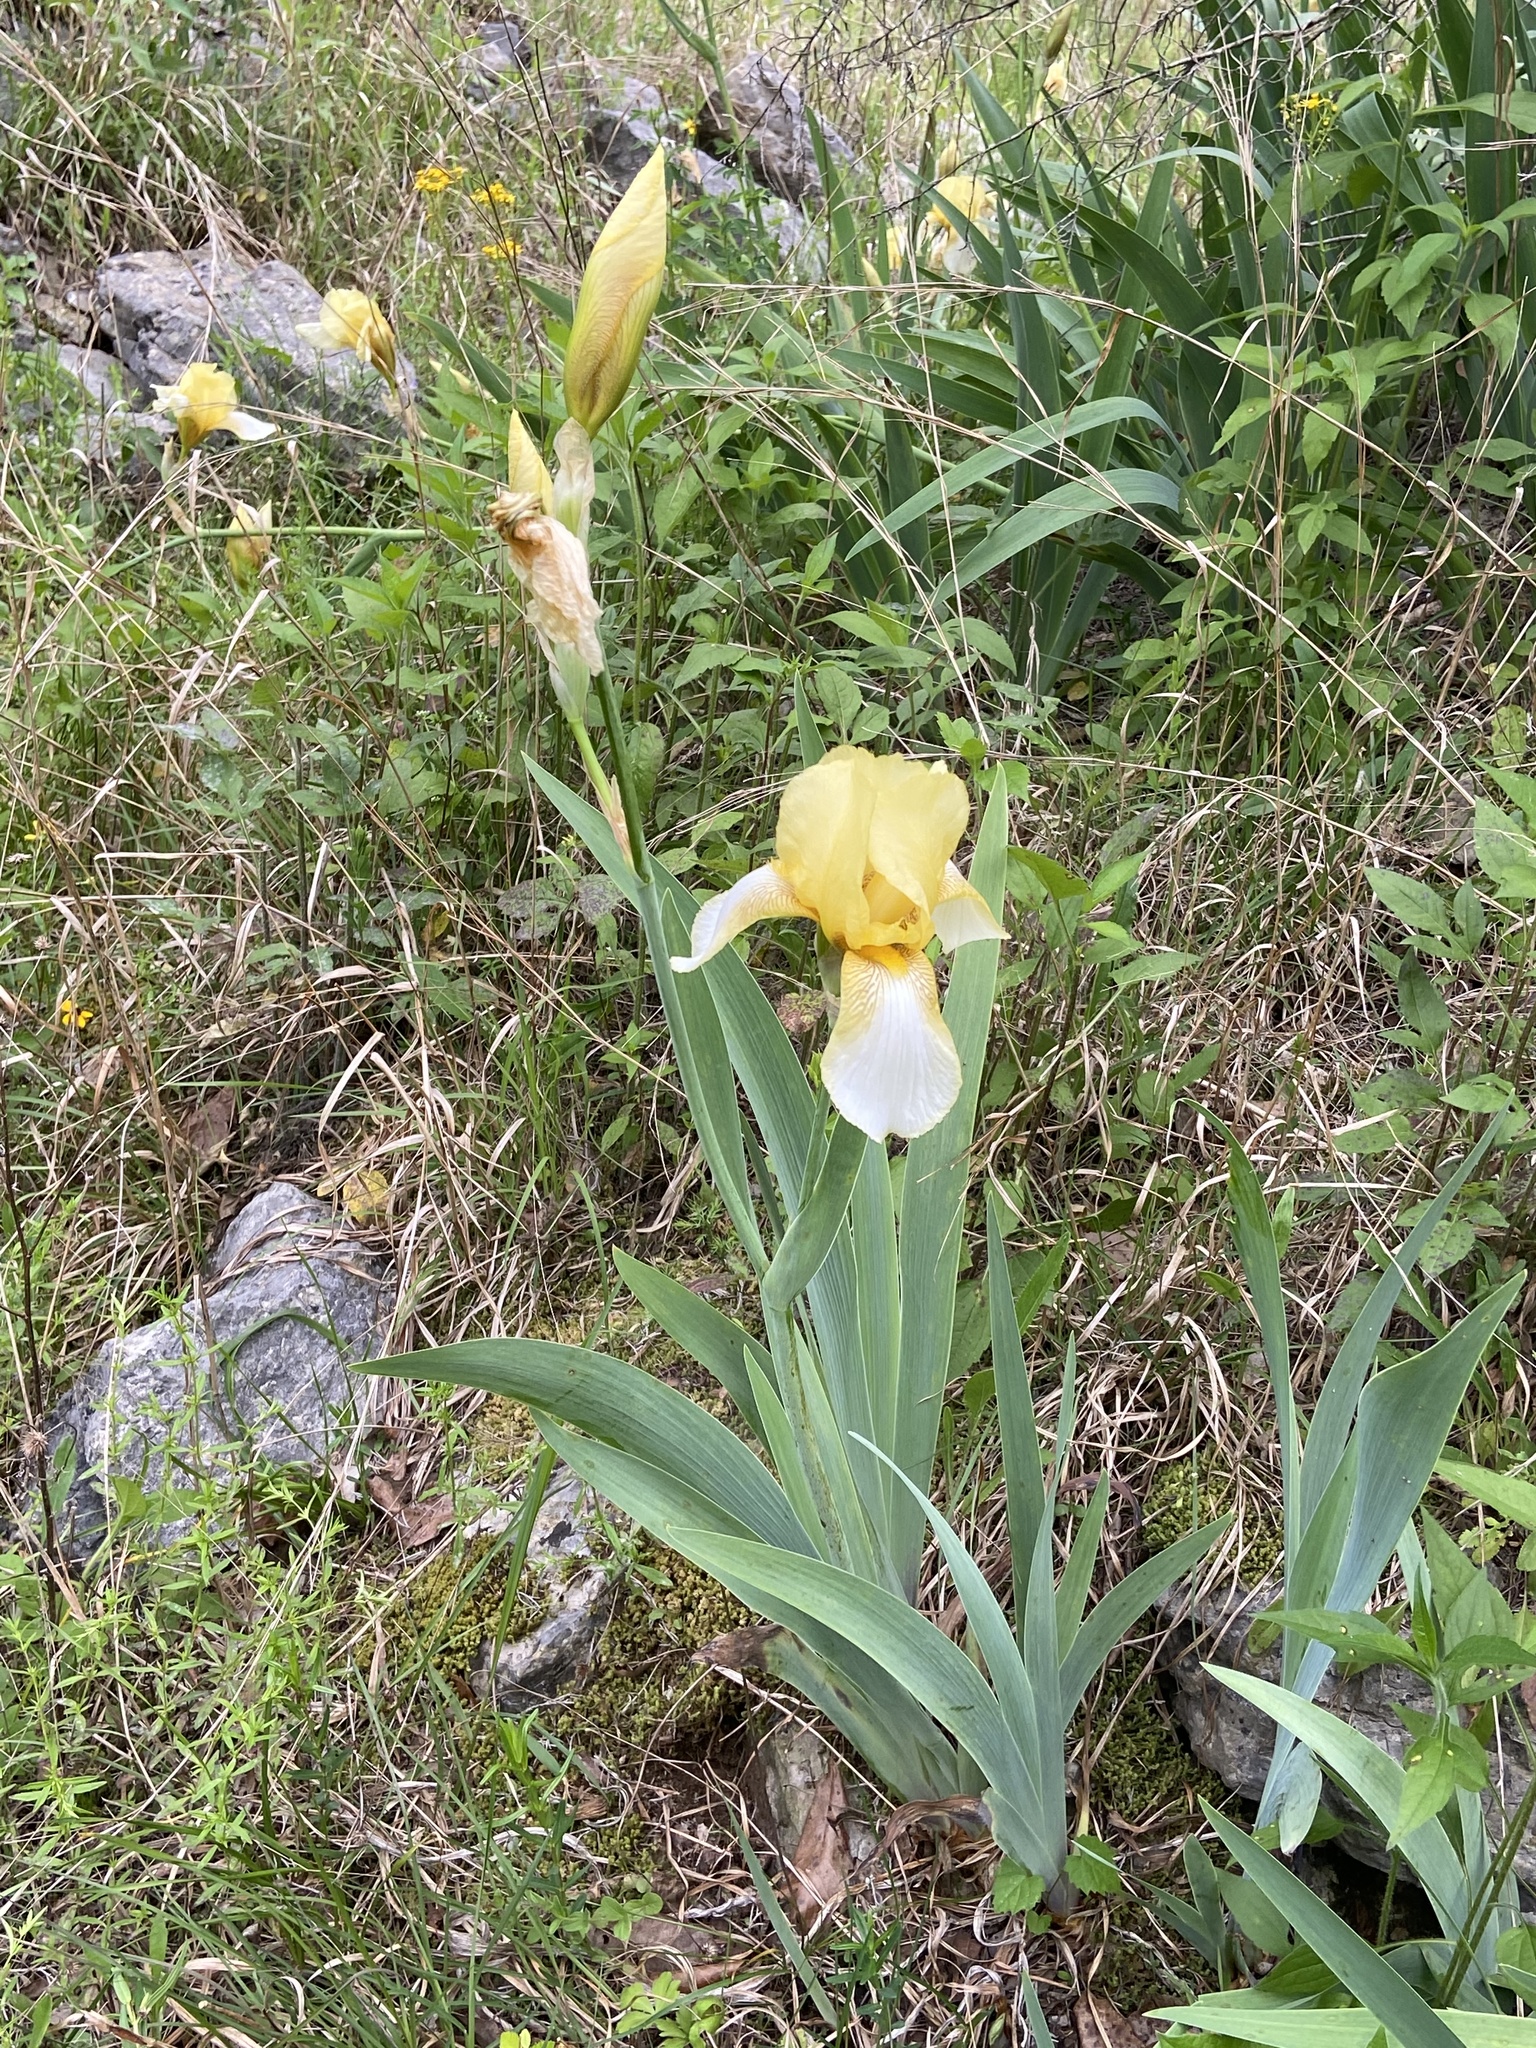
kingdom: Plantae
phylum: Tracheophyta
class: Liliopsida
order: Asparagales
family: Iridaceae
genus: Iris
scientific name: Iris hybrida
